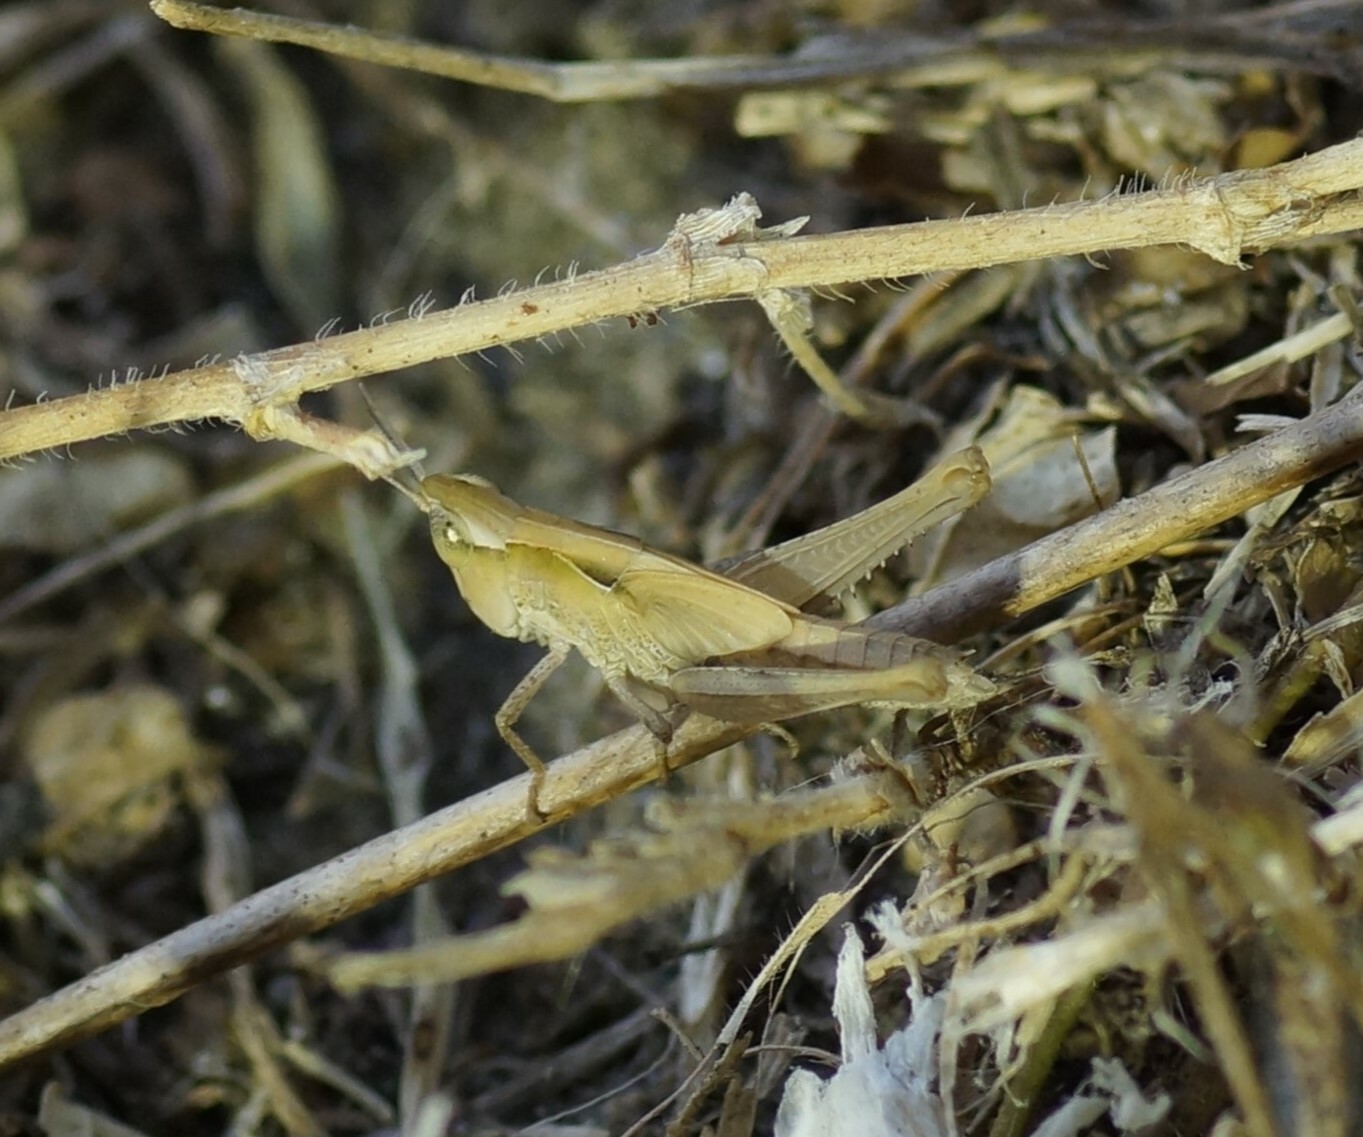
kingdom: Animalia
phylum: Arthropoda
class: Insecta
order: Orthoptera
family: Acrididae
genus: Calephorops
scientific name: Calephorops viridis
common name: Calephorops
